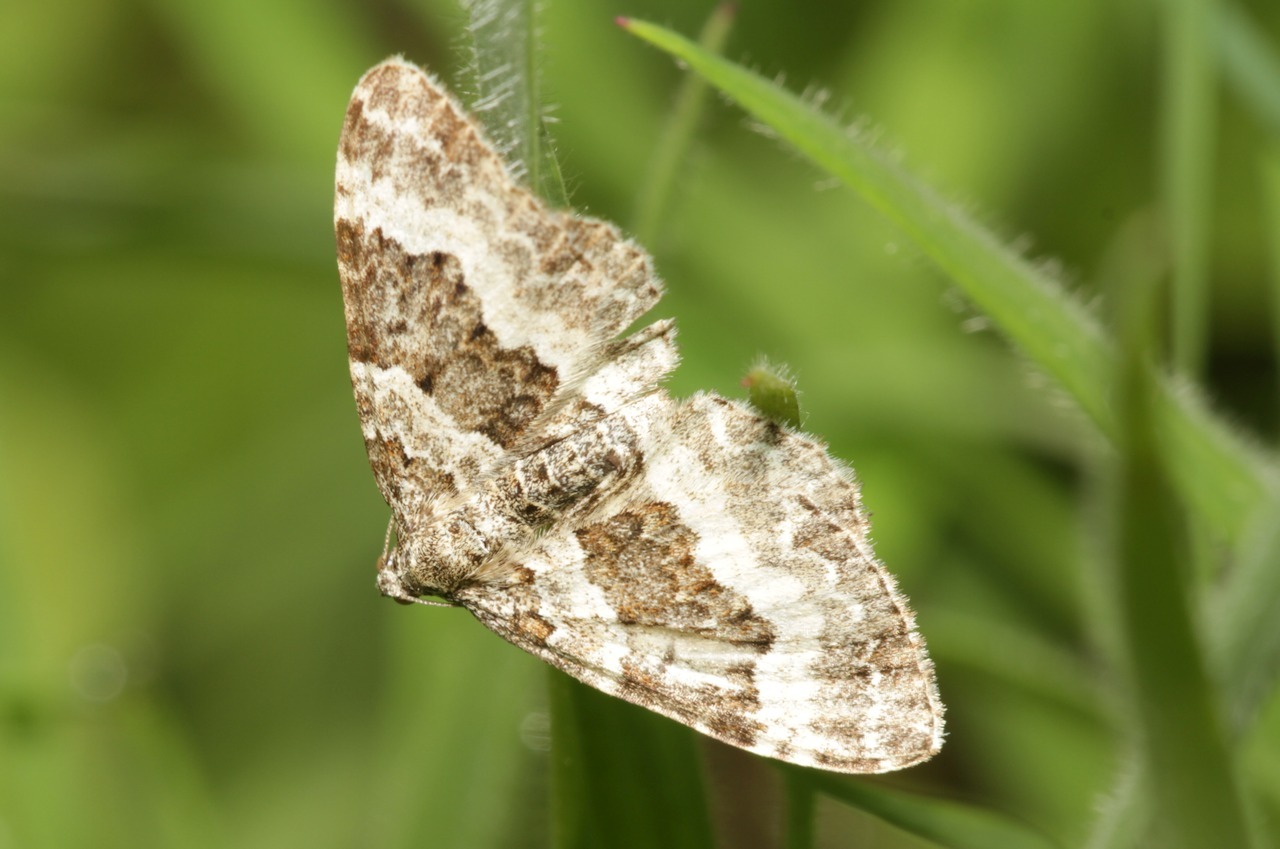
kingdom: Animalia
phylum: Arthropoda
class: Insecta
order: Lepidoptera
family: Geometridae
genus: Epirrhoe
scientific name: Epirrhoe alternata
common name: Common carpet
